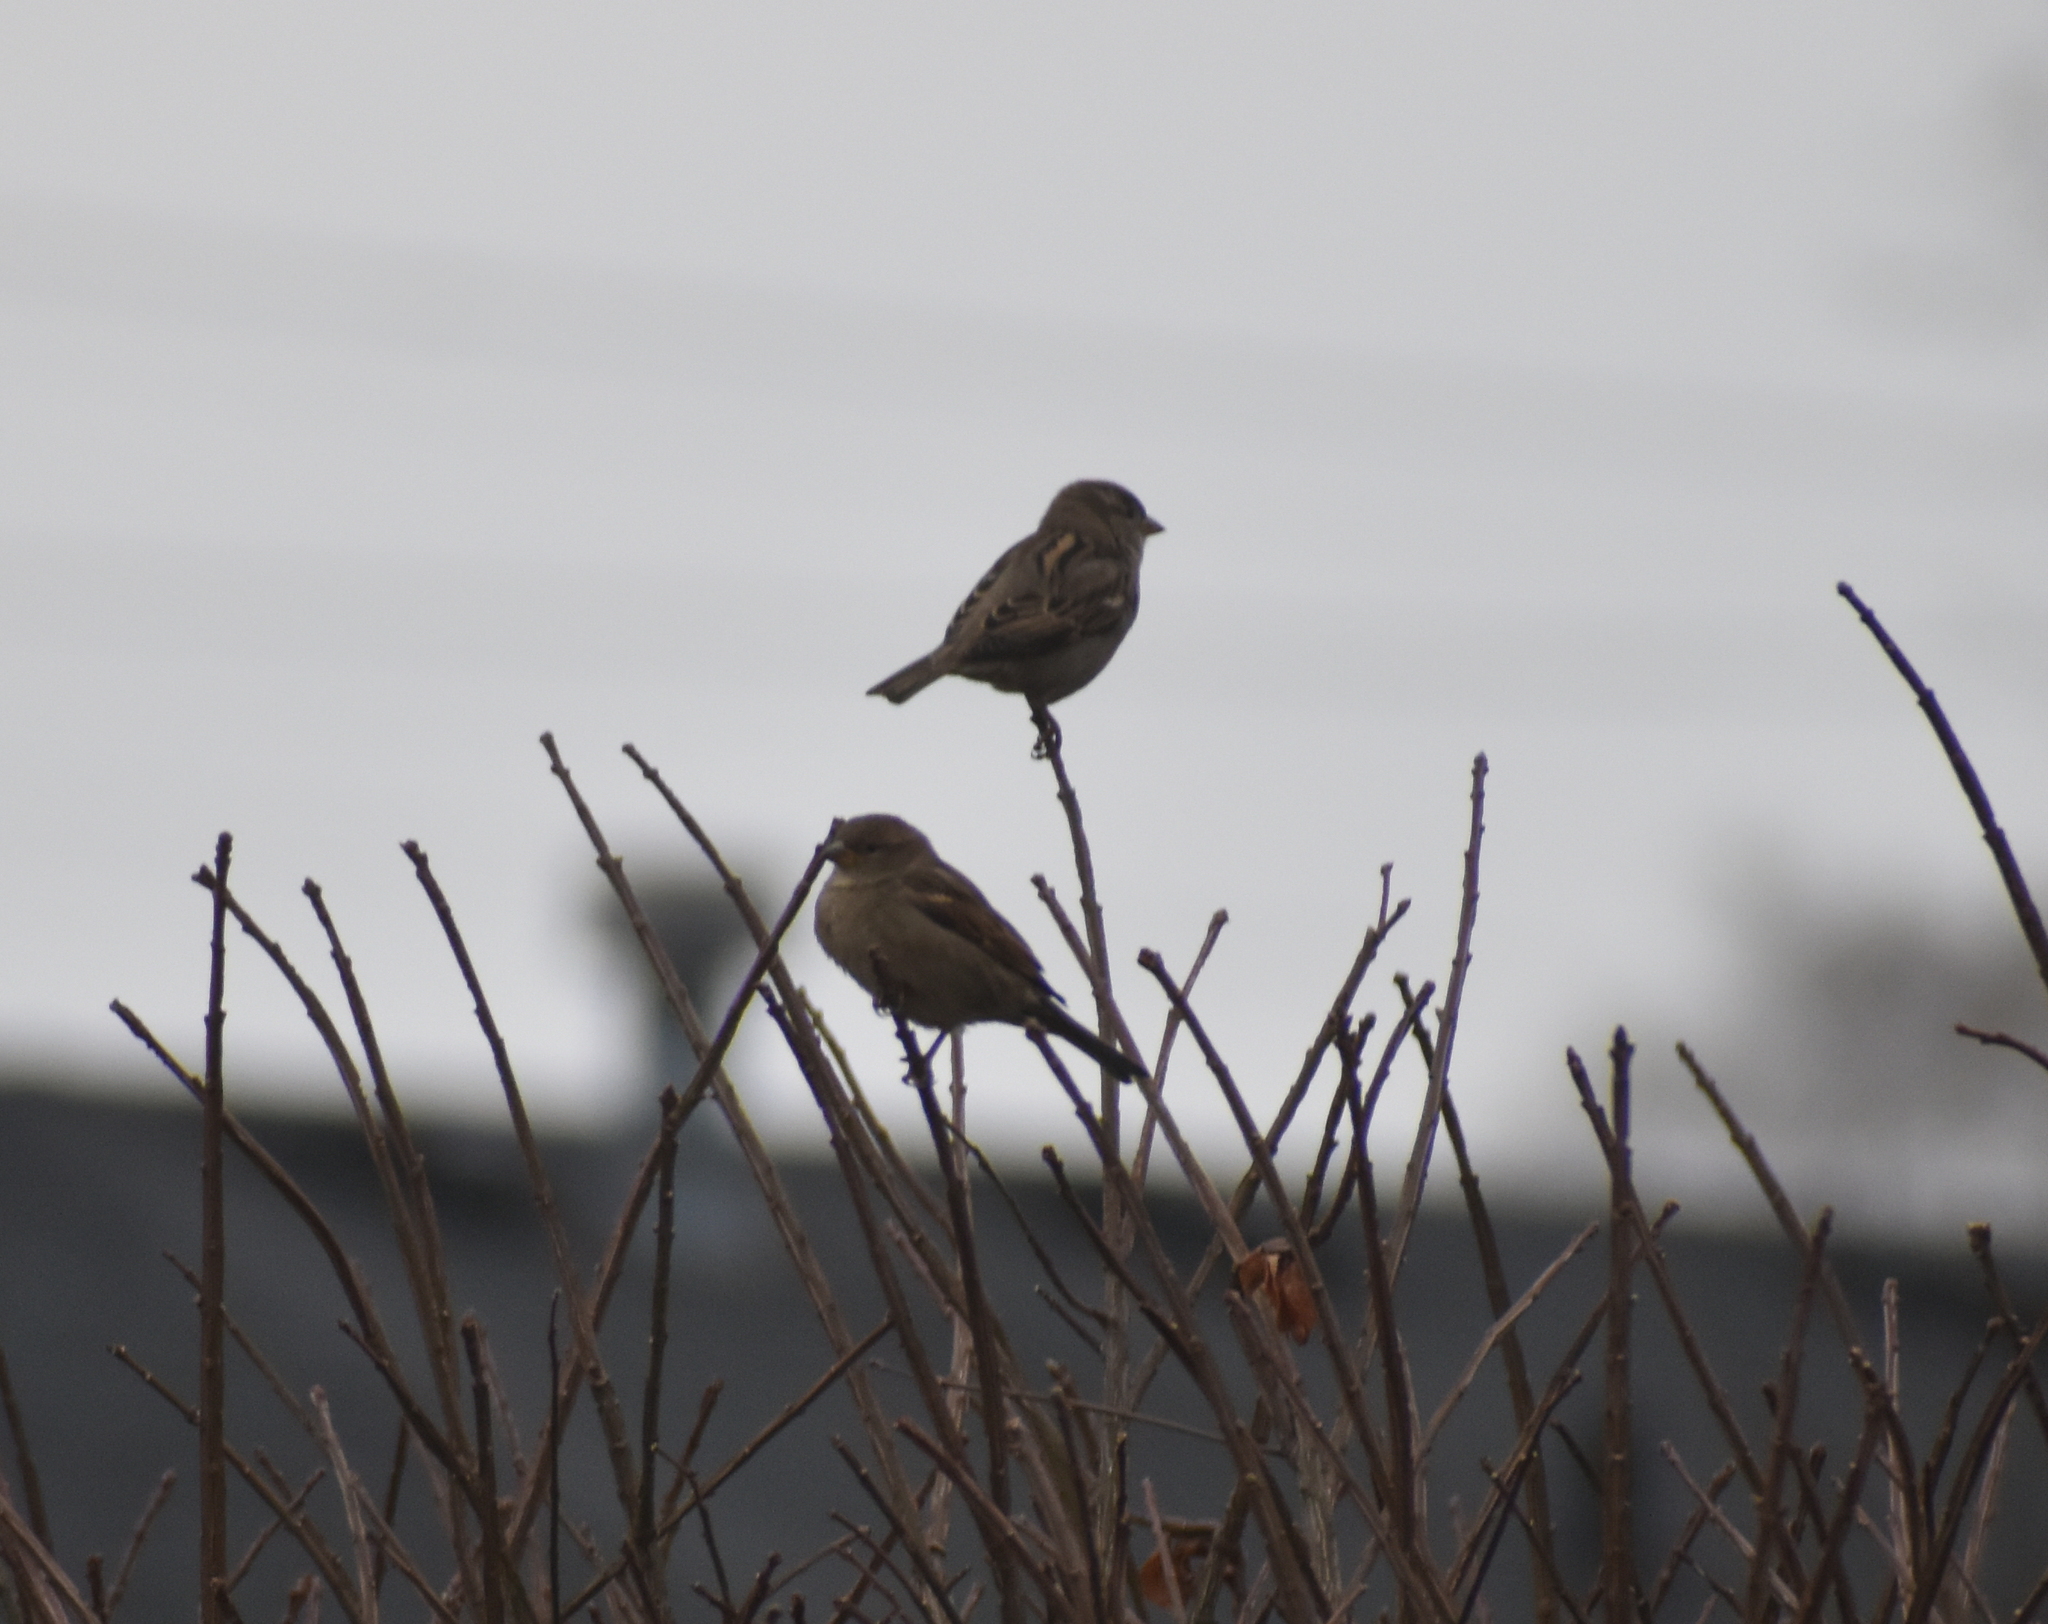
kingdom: Animalia
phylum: Chordata
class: Aves
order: Passeriformes
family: Passeridae
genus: Passer
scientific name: Passer domesticus
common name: House sparrow
